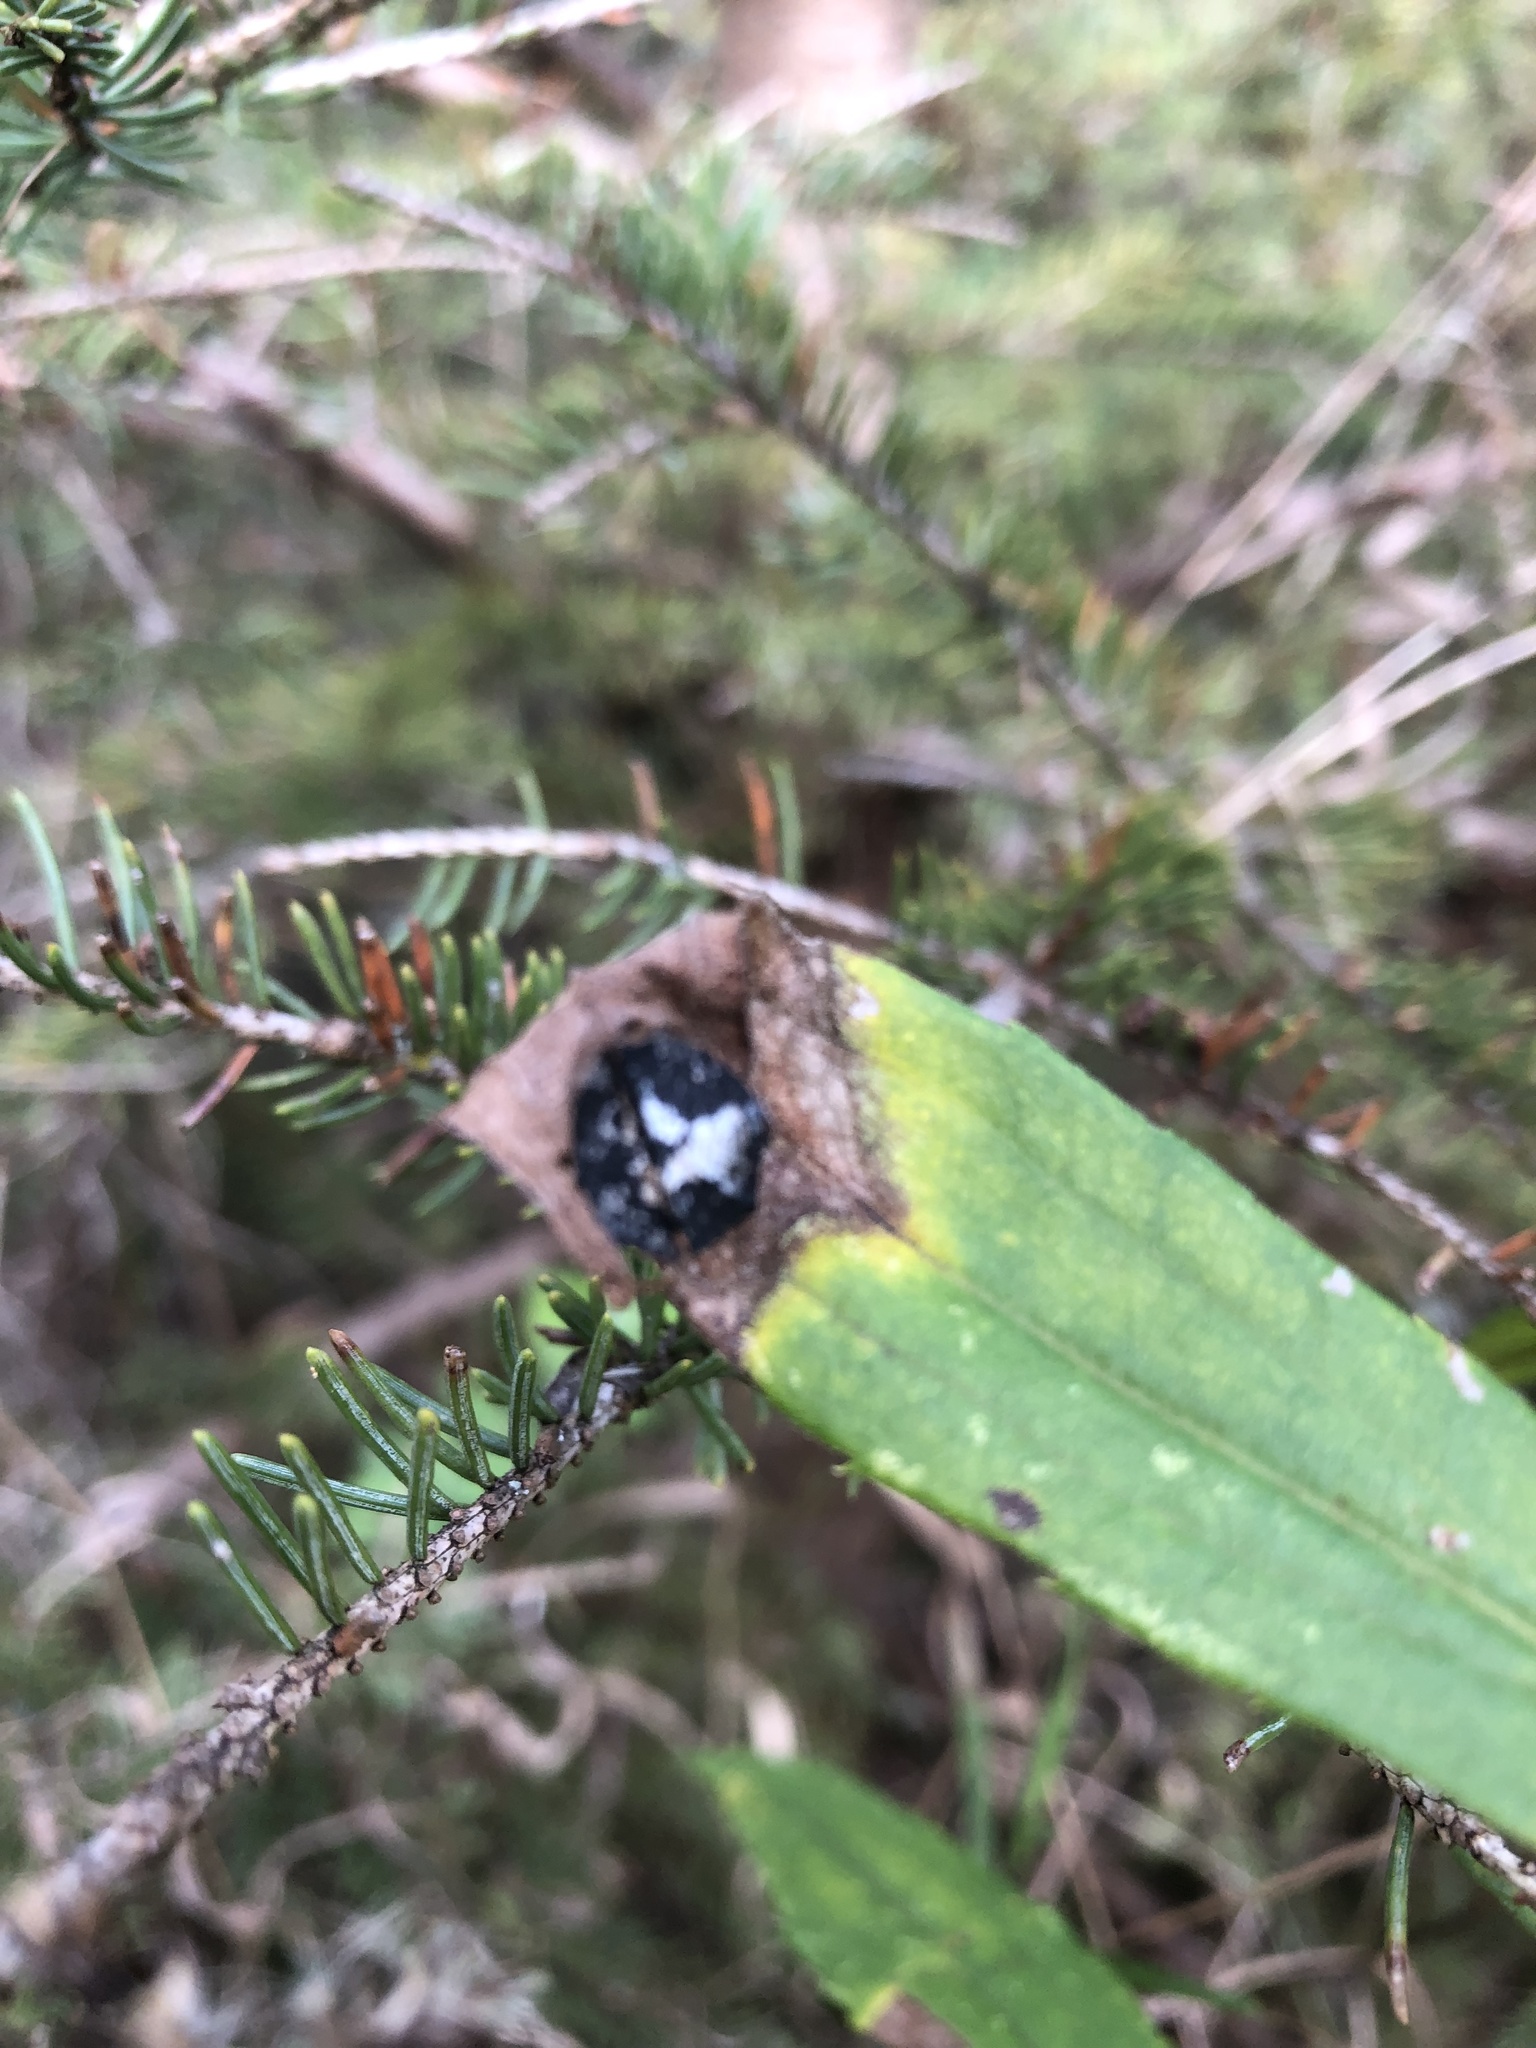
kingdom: Animalia
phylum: Arthropoda
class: Insecta
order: Diptera
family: Cecidomyiidae
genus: Asteromyia
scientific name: Asteromyia carbonifera
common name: Carbonifera goldenrod gall midge
